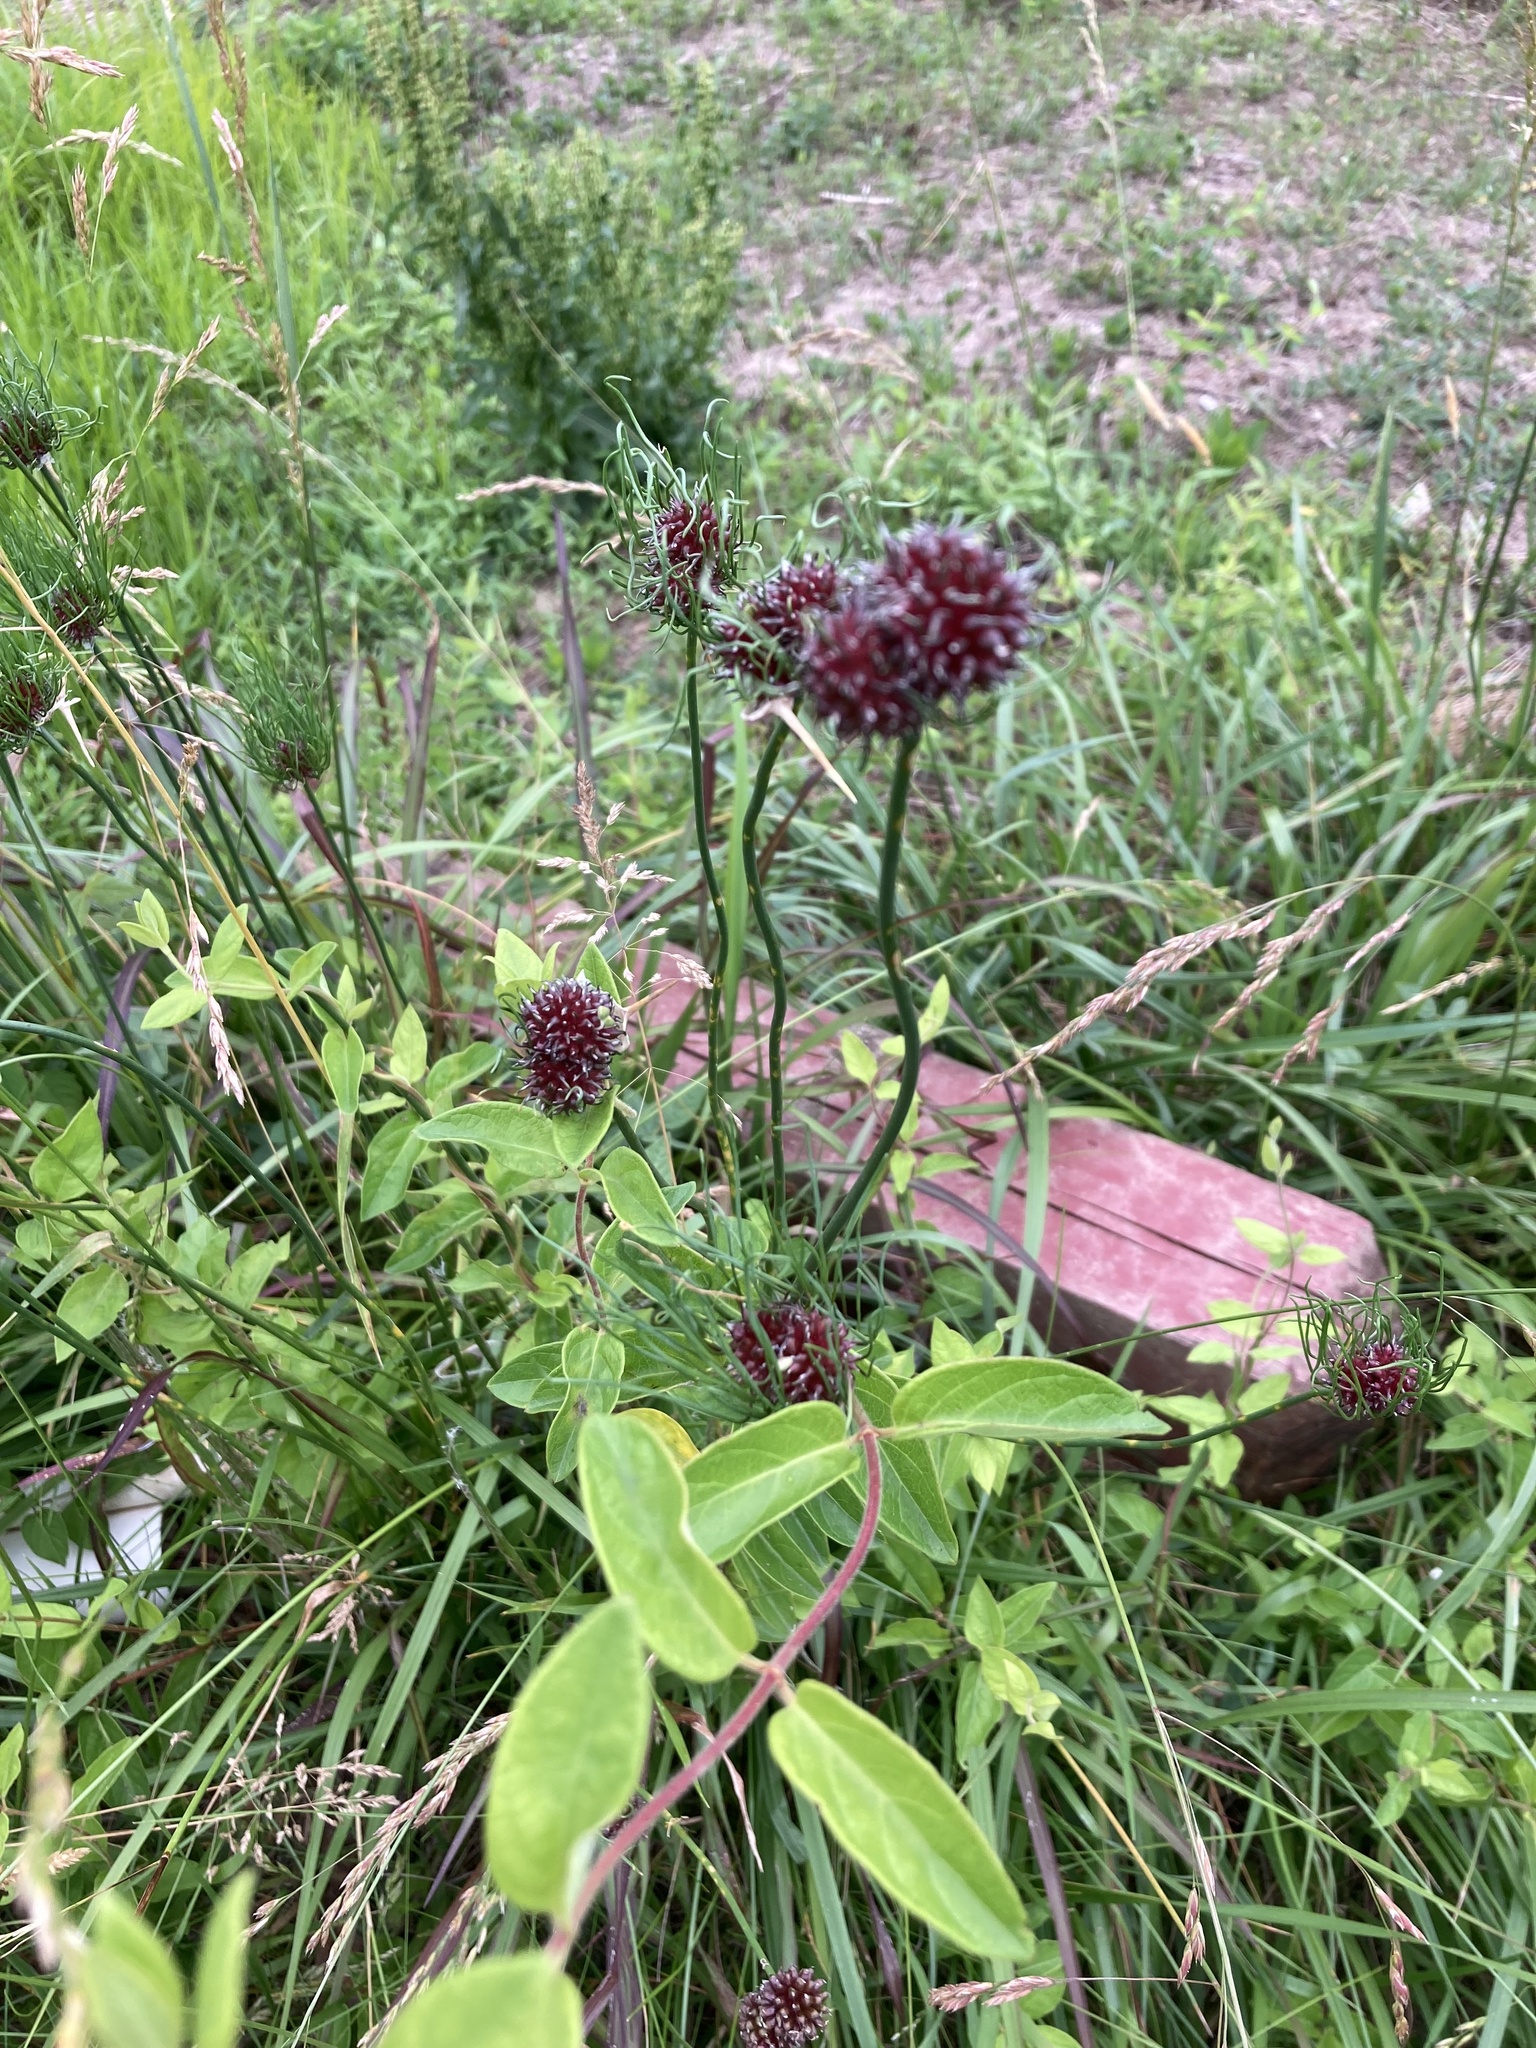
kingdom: Plantae
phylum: Tracheophyta
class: Liliopsida
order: Asparagales
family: Amaryllidaceae
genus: Allium
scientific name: Allium vineale
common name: Crow garlic
